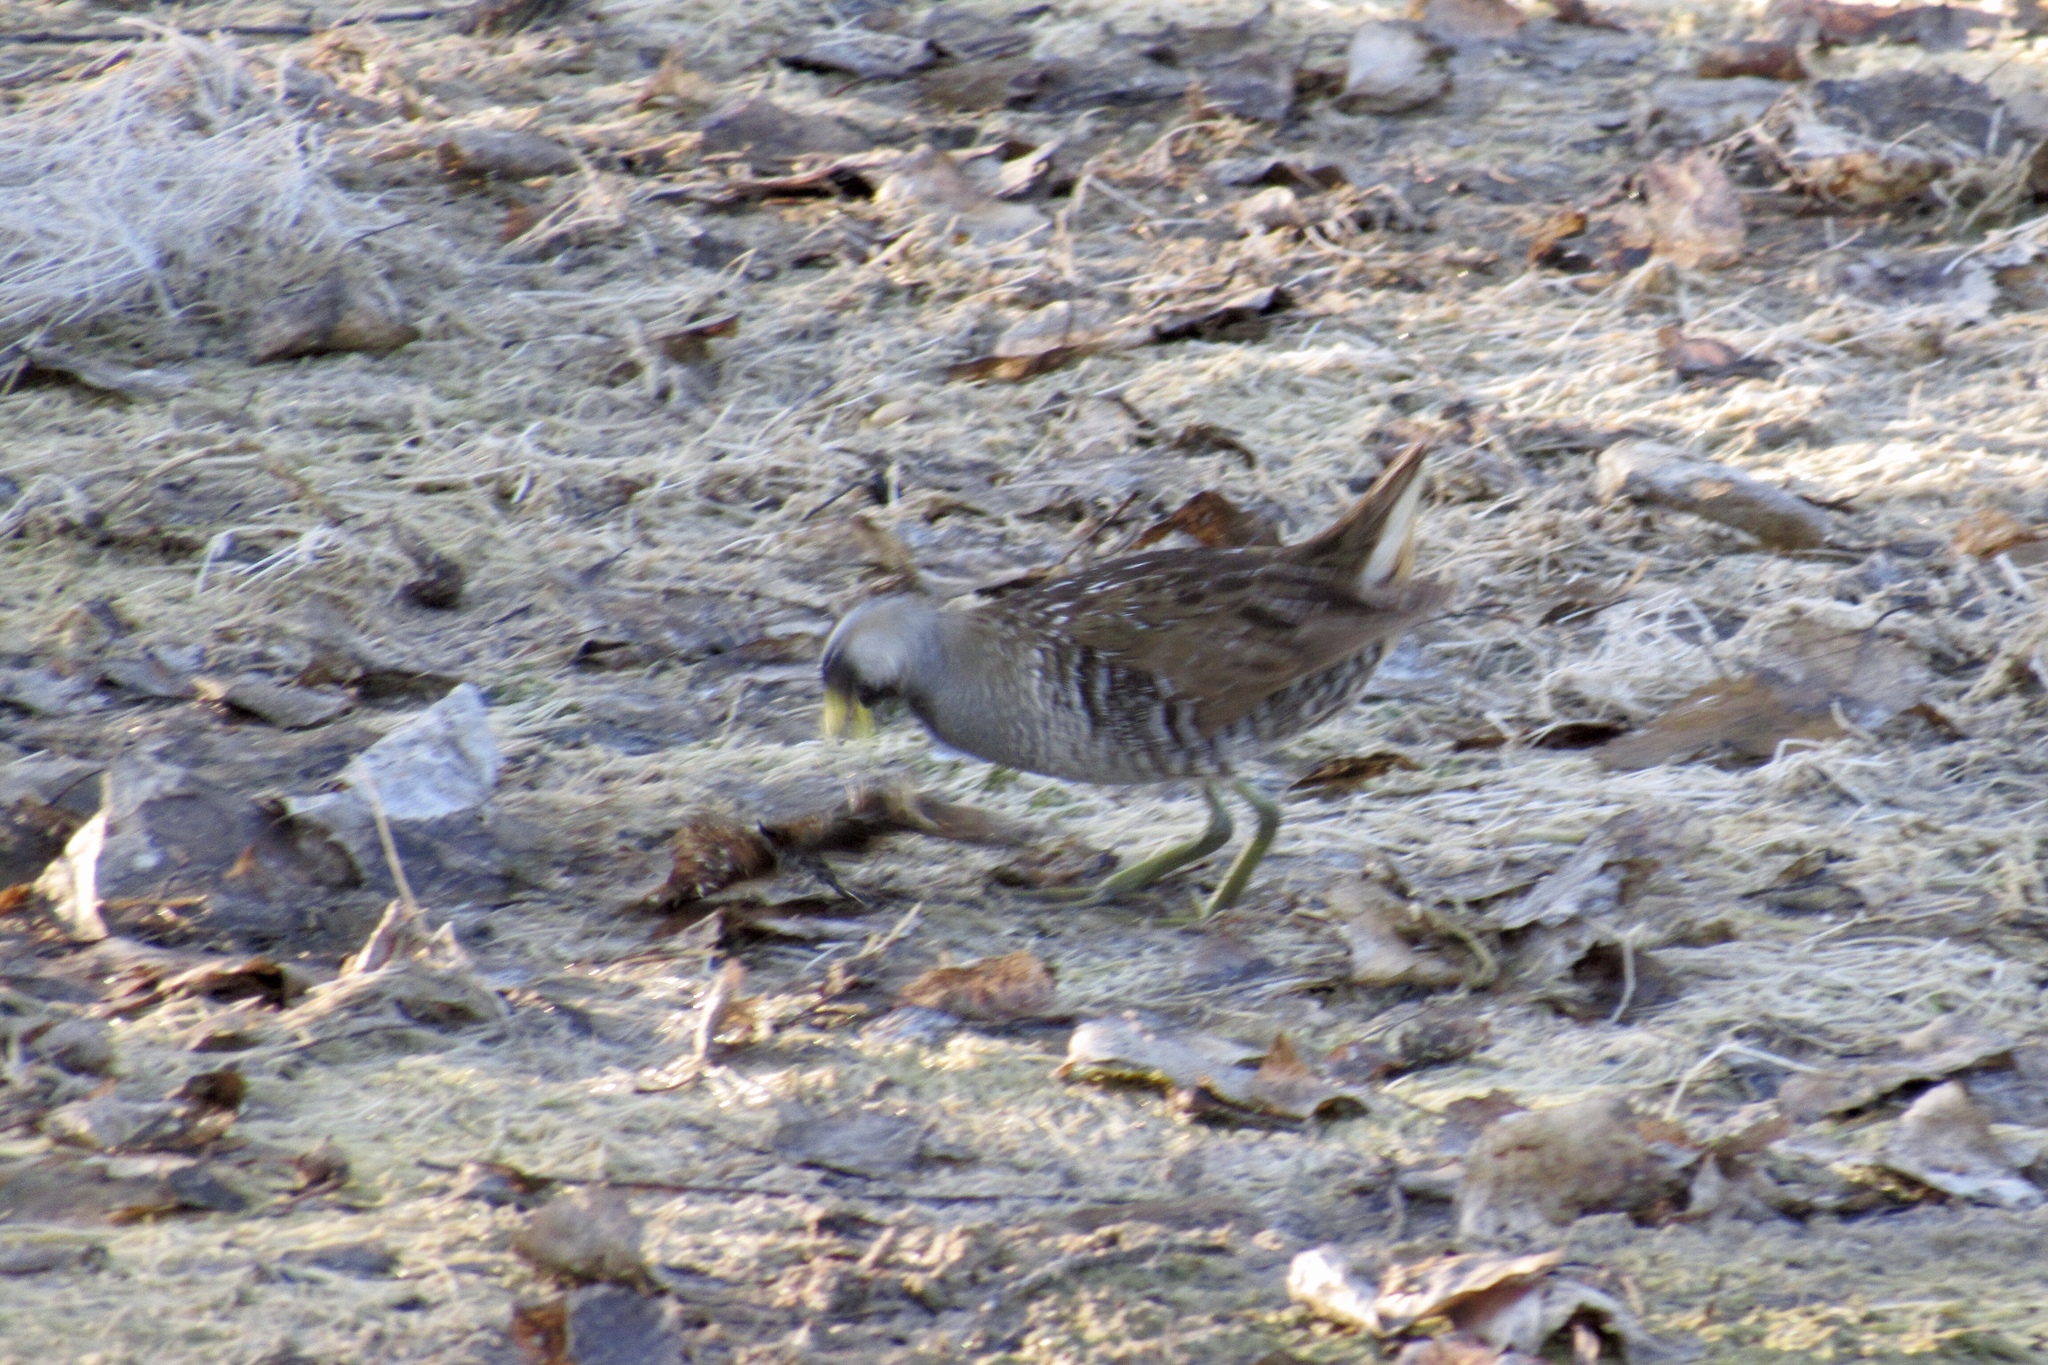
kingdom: Animalia
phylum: Chordata
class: Aves
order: Gruiformes
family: Rallidae
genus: Porzana
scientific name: Porzana carolina
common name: Sora
